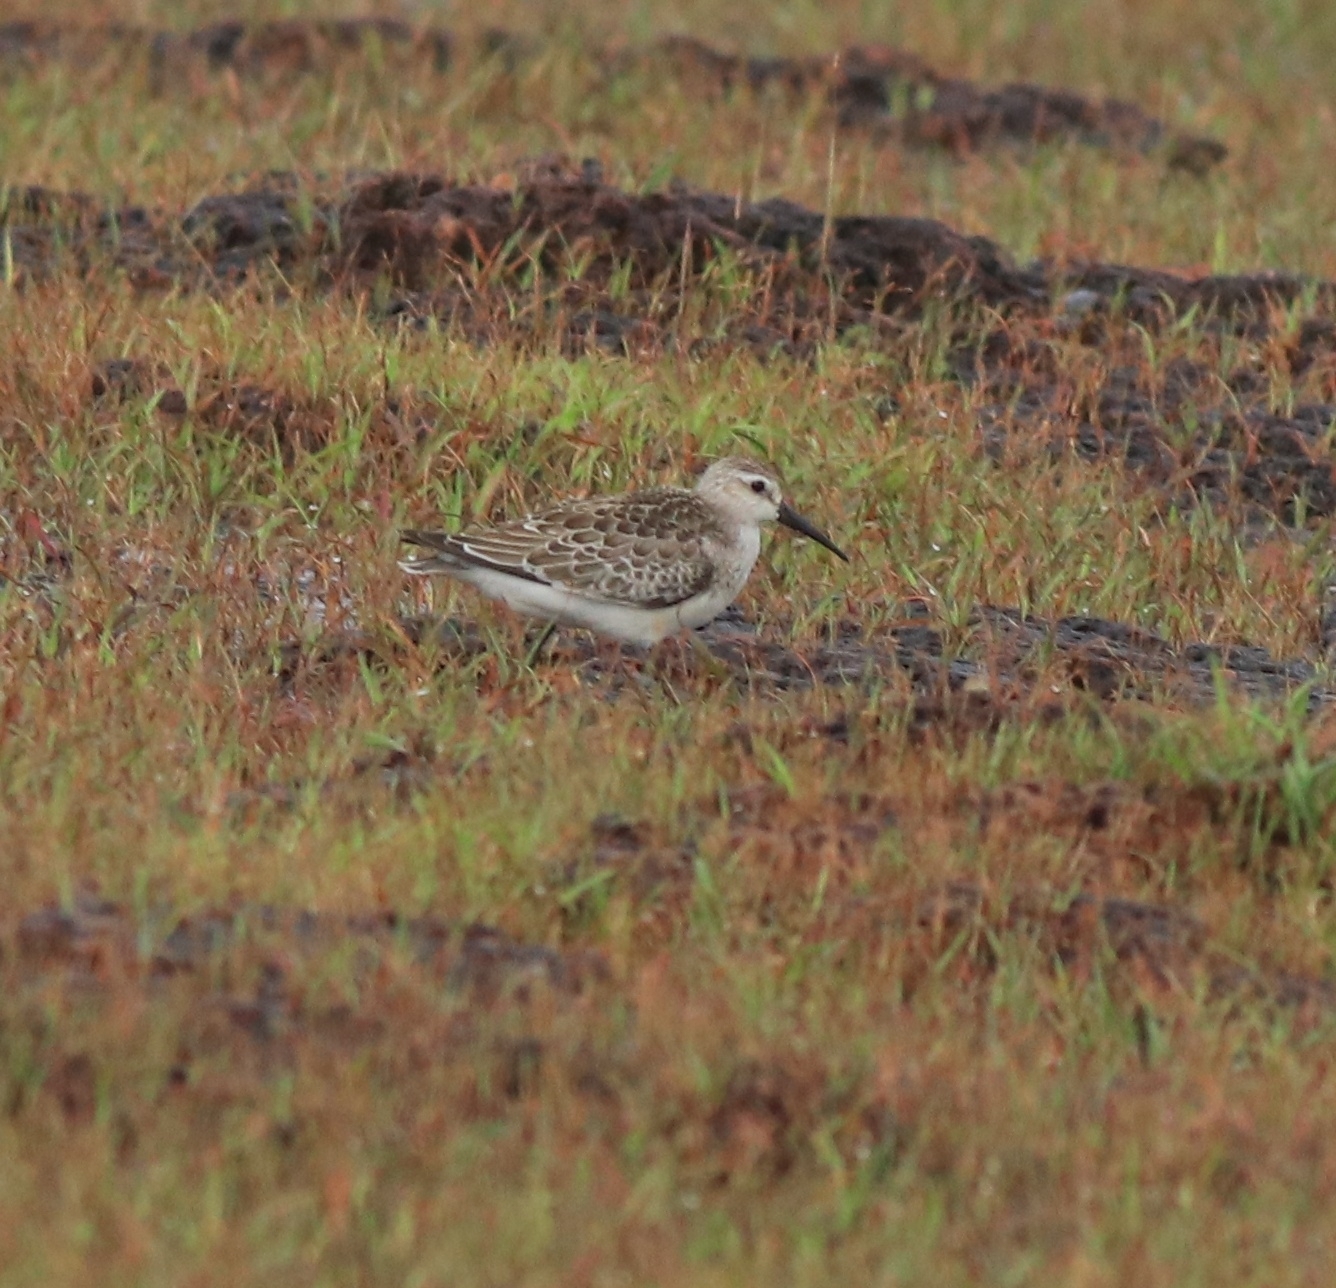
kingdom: Animalia
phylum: Chordata
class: Aves
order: Charadriiformes
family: Scolopacidae
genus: Calidris
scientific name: Calidris ferruginea
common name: Curlew sandpiper
